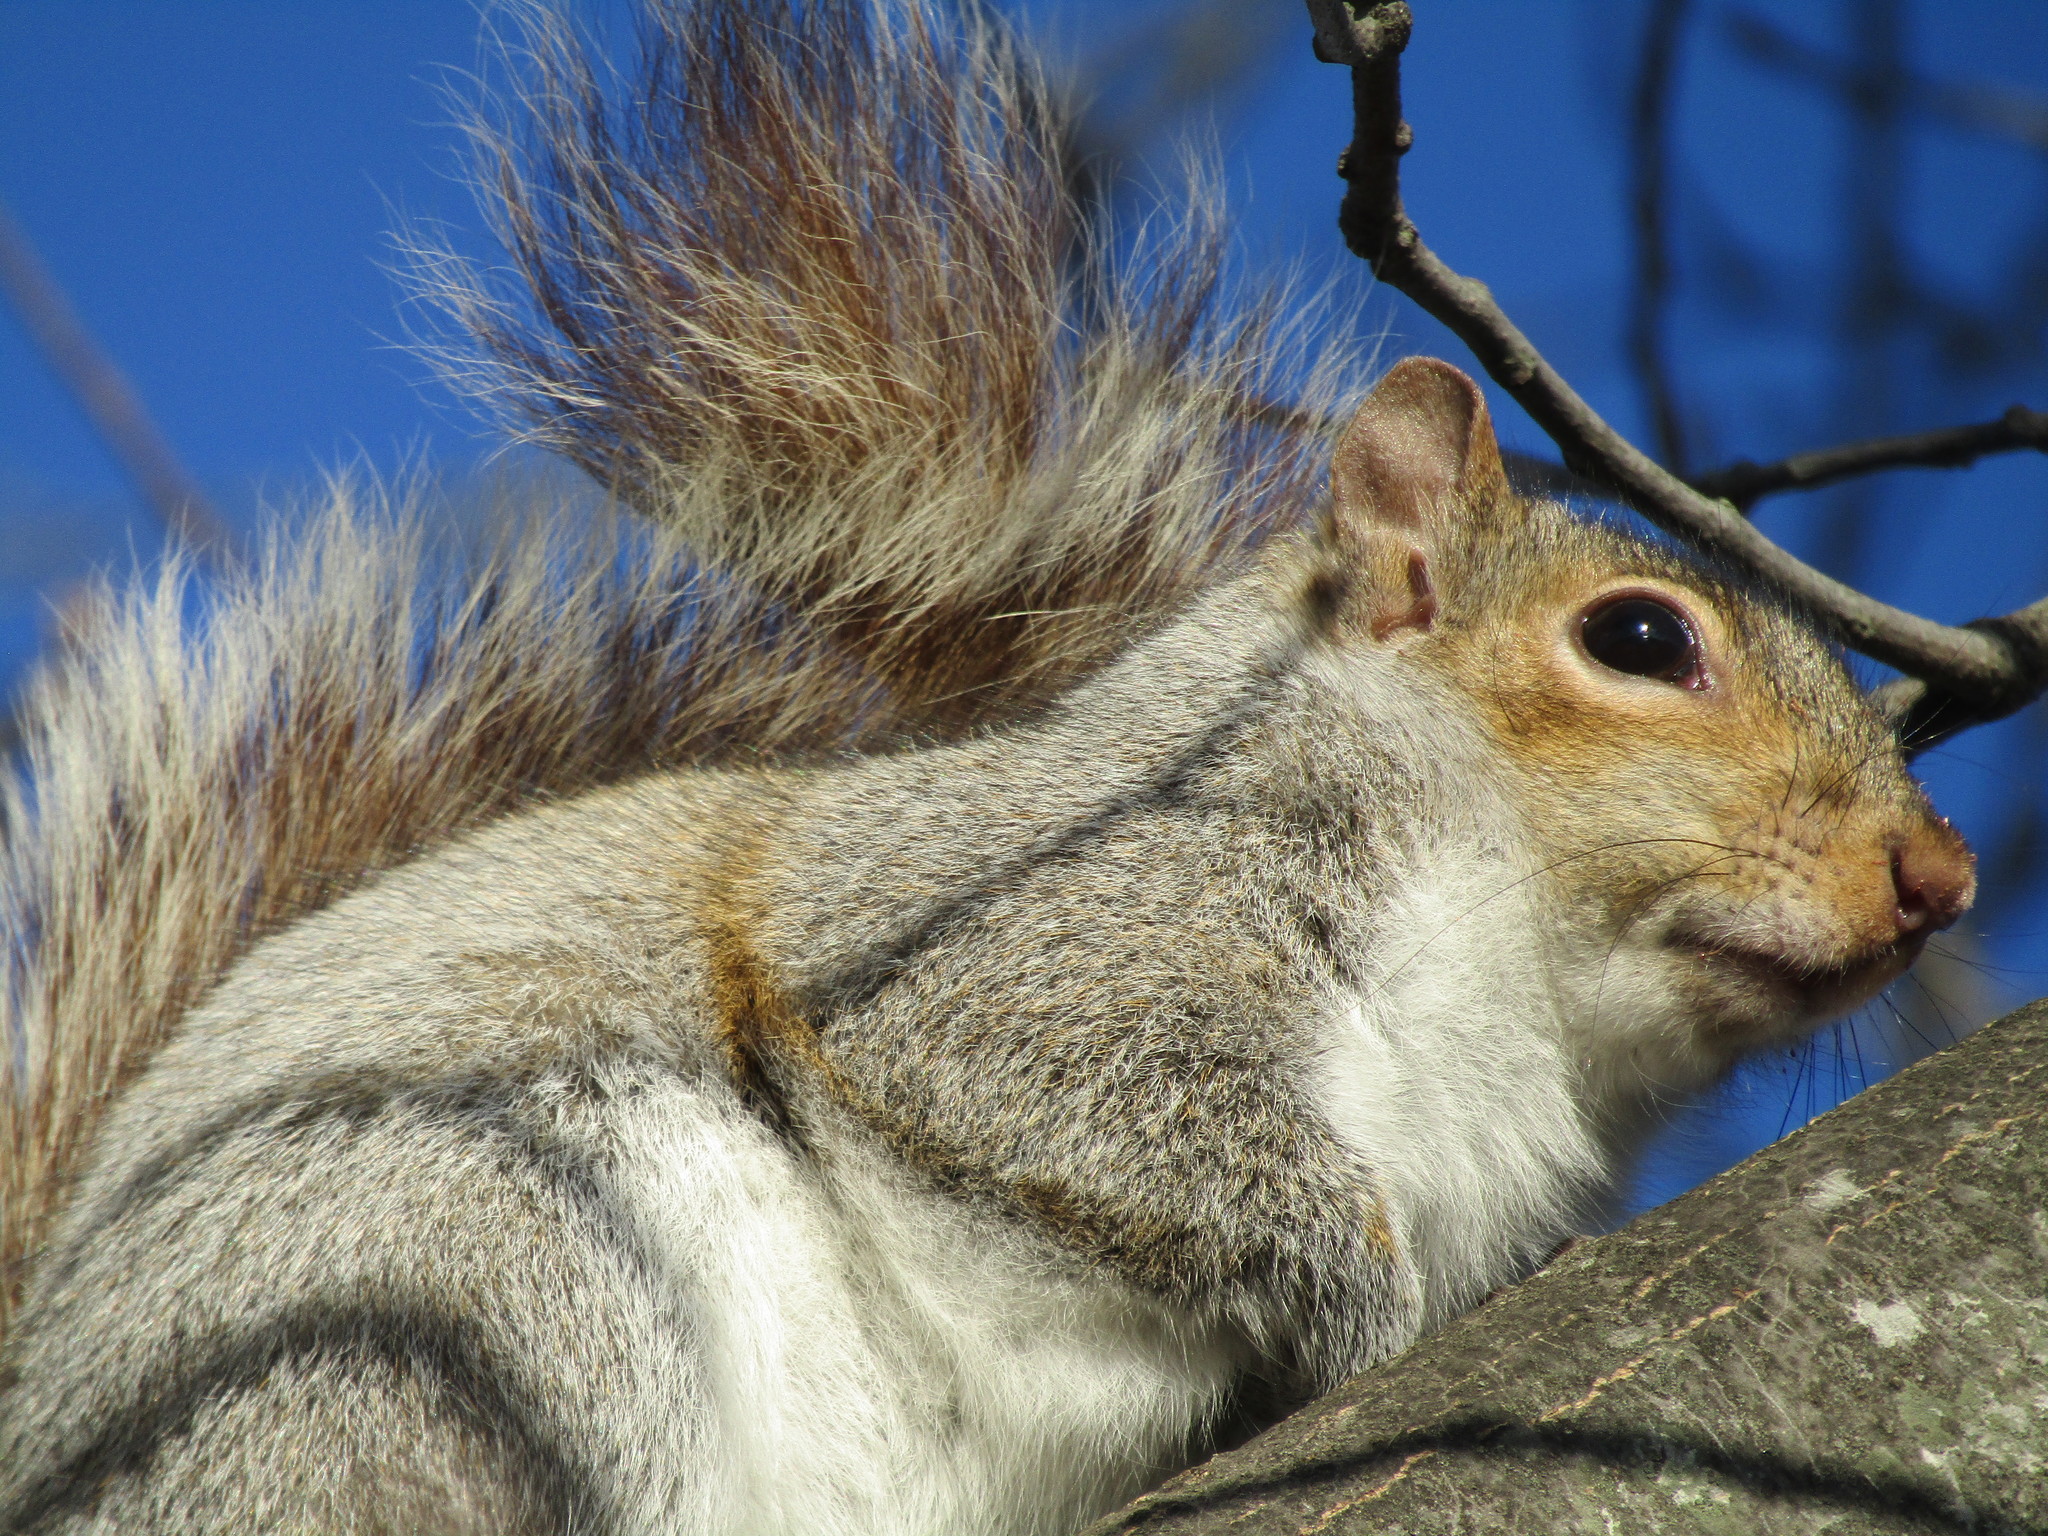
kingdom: Animalia
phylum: Chordata
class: Mammalia
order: Rodentia
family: Sciuridae
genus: Sciurus
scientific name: Sciurus carolinensis
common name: Eastern gray squirrel
